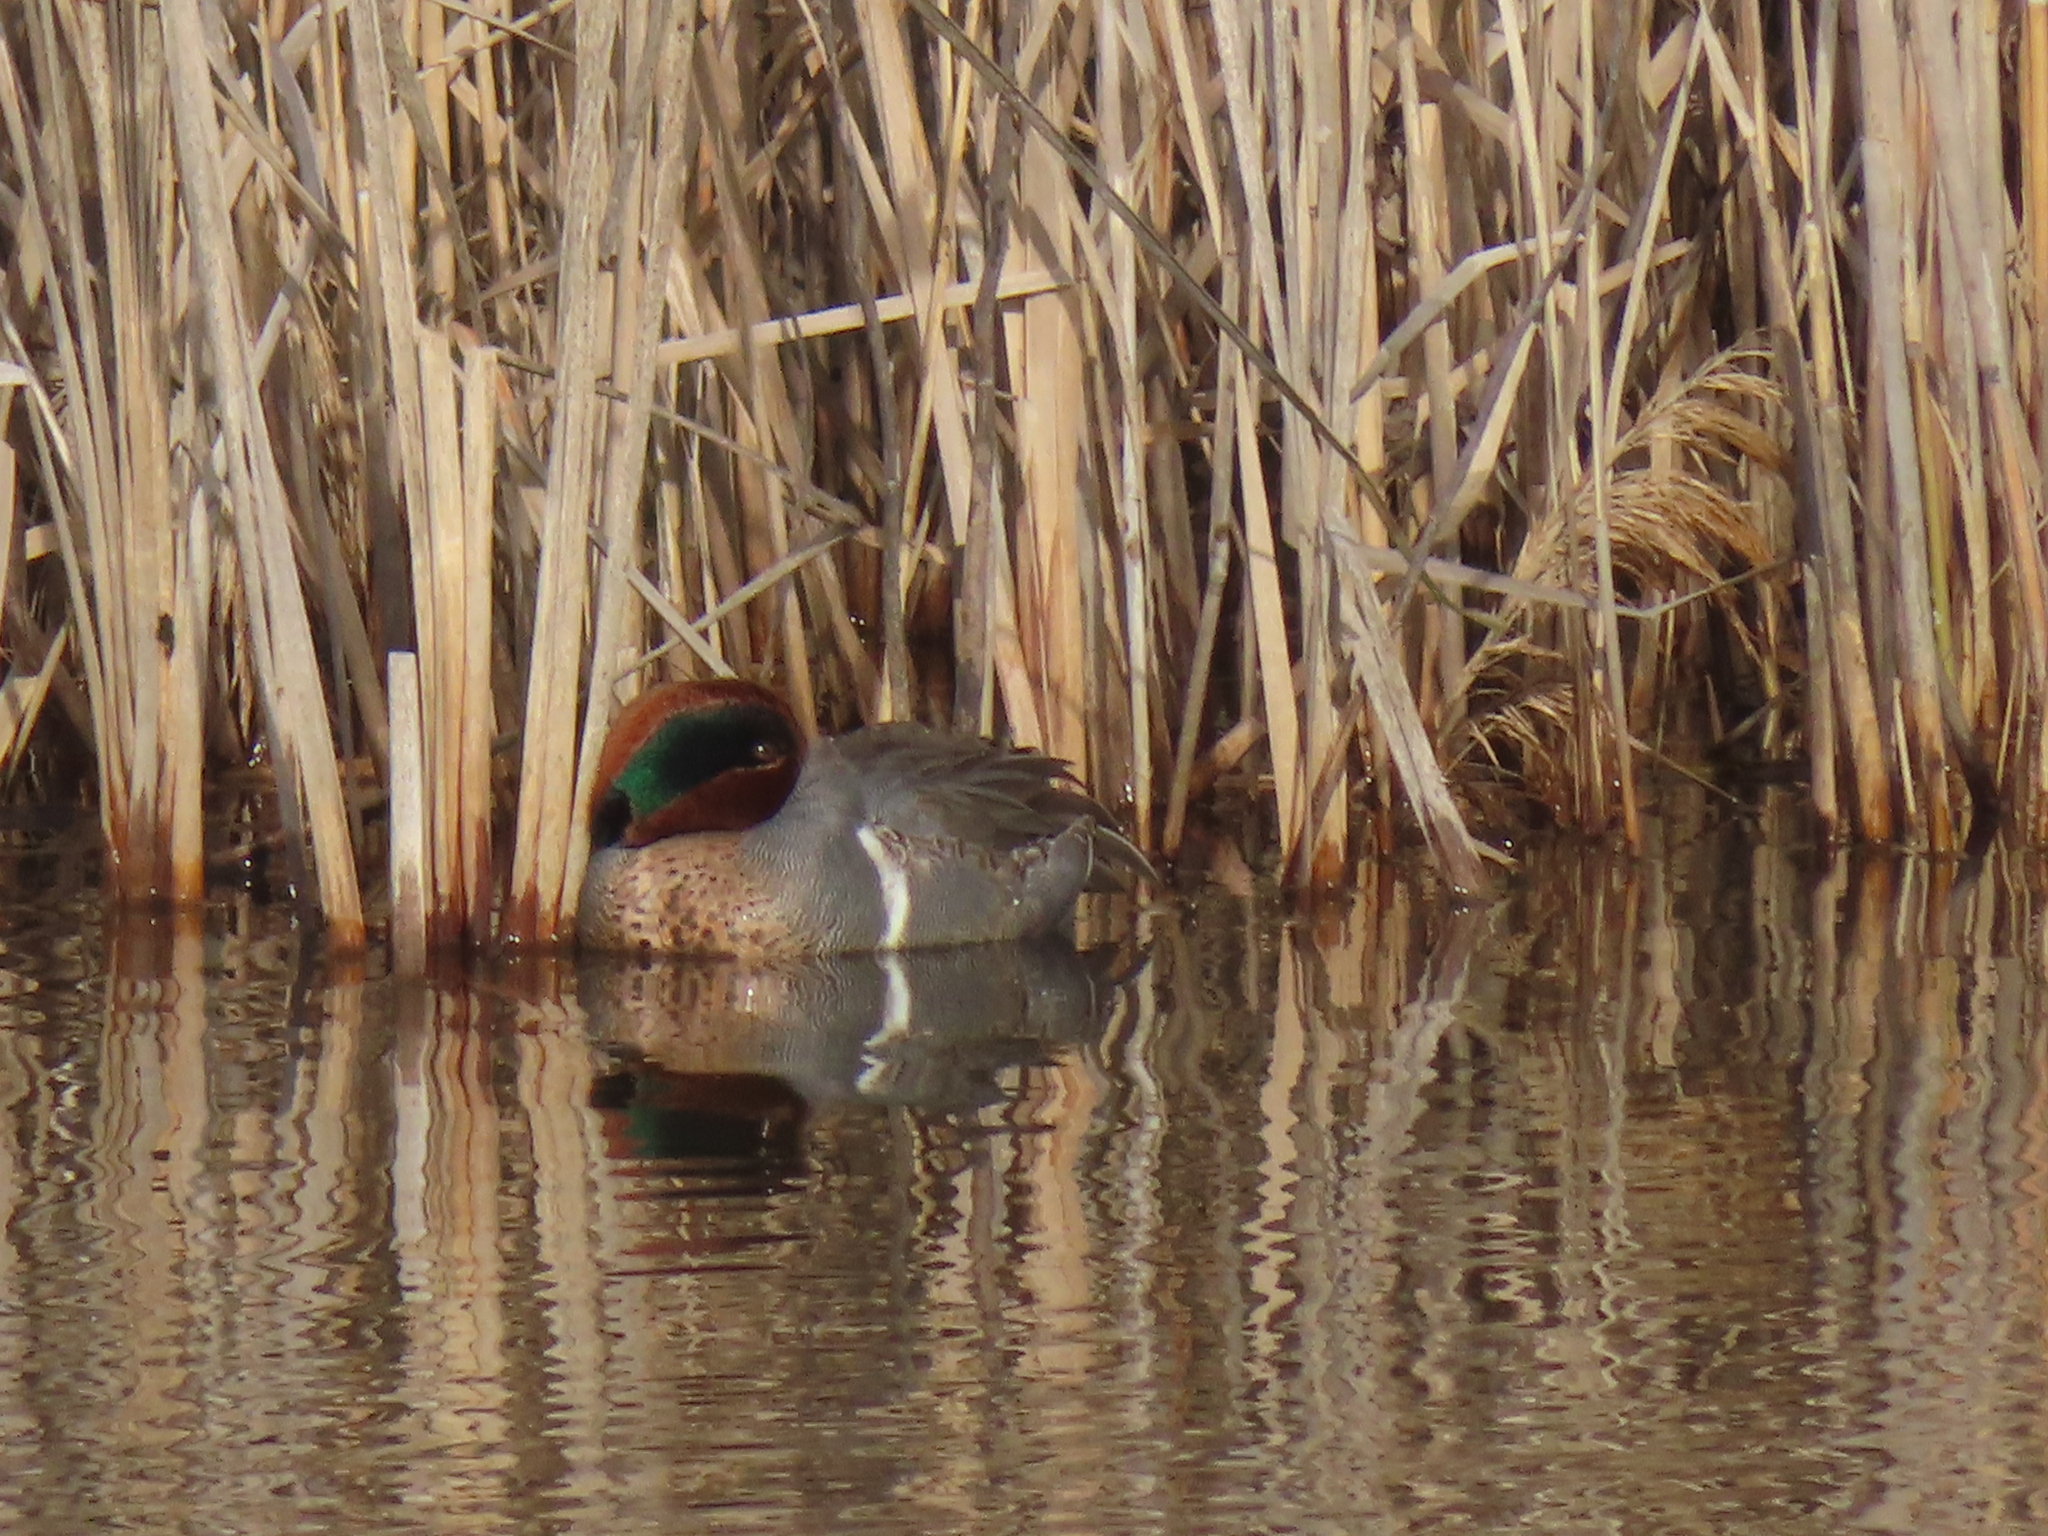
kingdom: Animalia
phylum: Chordata
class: Aves
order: Anseriformes
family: Anatidae
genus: Anas
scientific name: Anas crecca
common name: Eurasian teal
